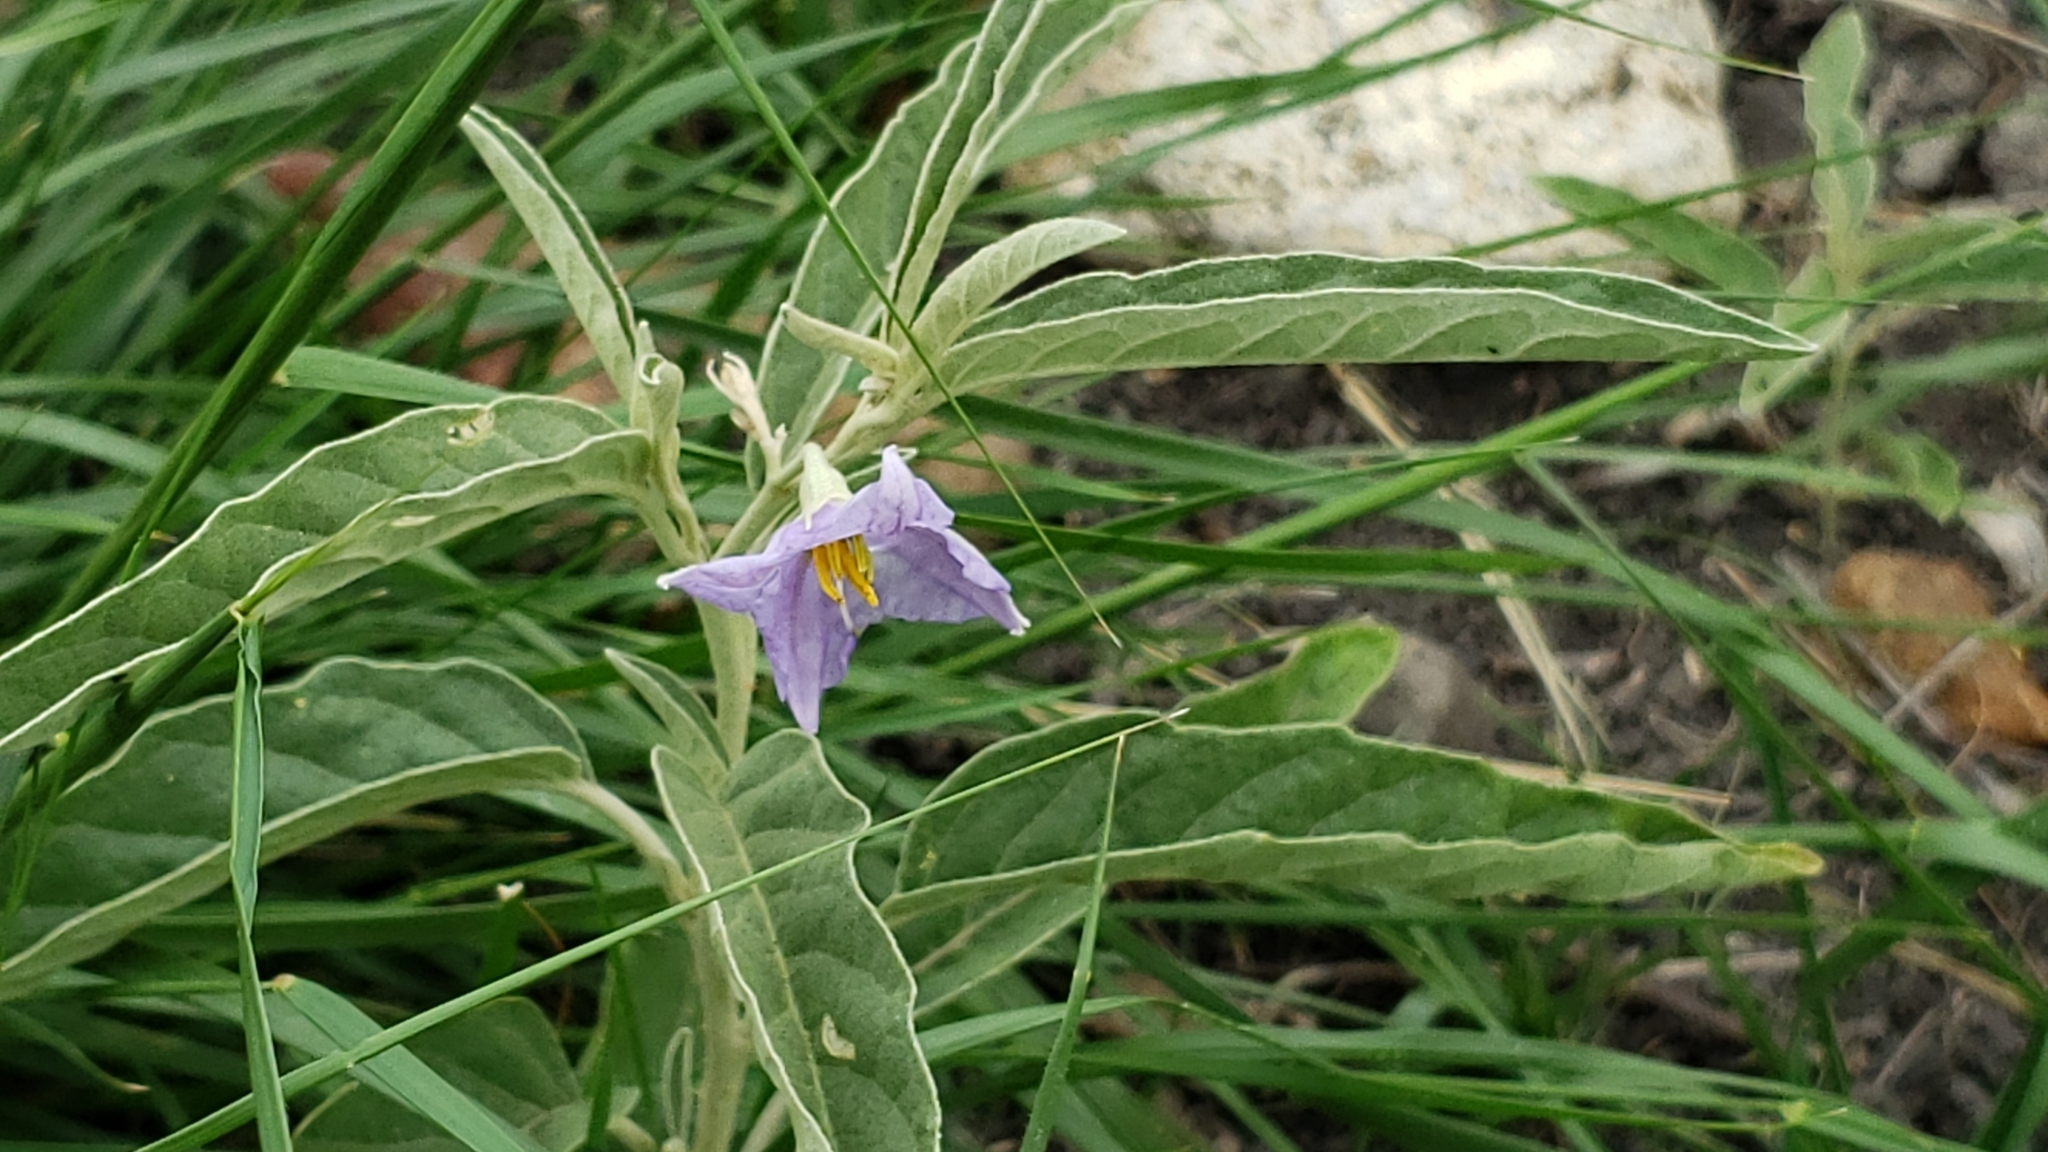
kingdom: Plantae
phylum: Tracheophyta
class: Magnoliopsida
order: Solanales
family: Solanaceae
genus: Solanum
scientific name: Solanum elaeagnifolium
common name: Silverleaf nightshade
